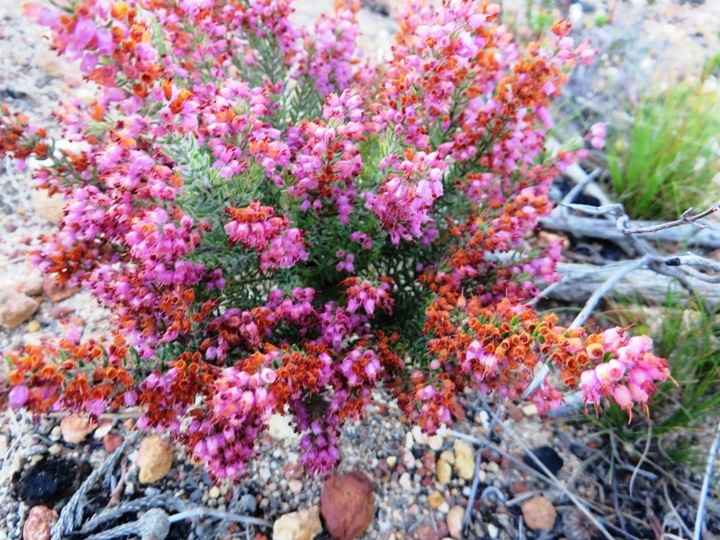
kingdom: Plantae
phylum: Tracheophyta
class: Magnoliopsida
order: Ericales
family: Ericaceae
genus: Erica
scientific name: Erica nudiflora
